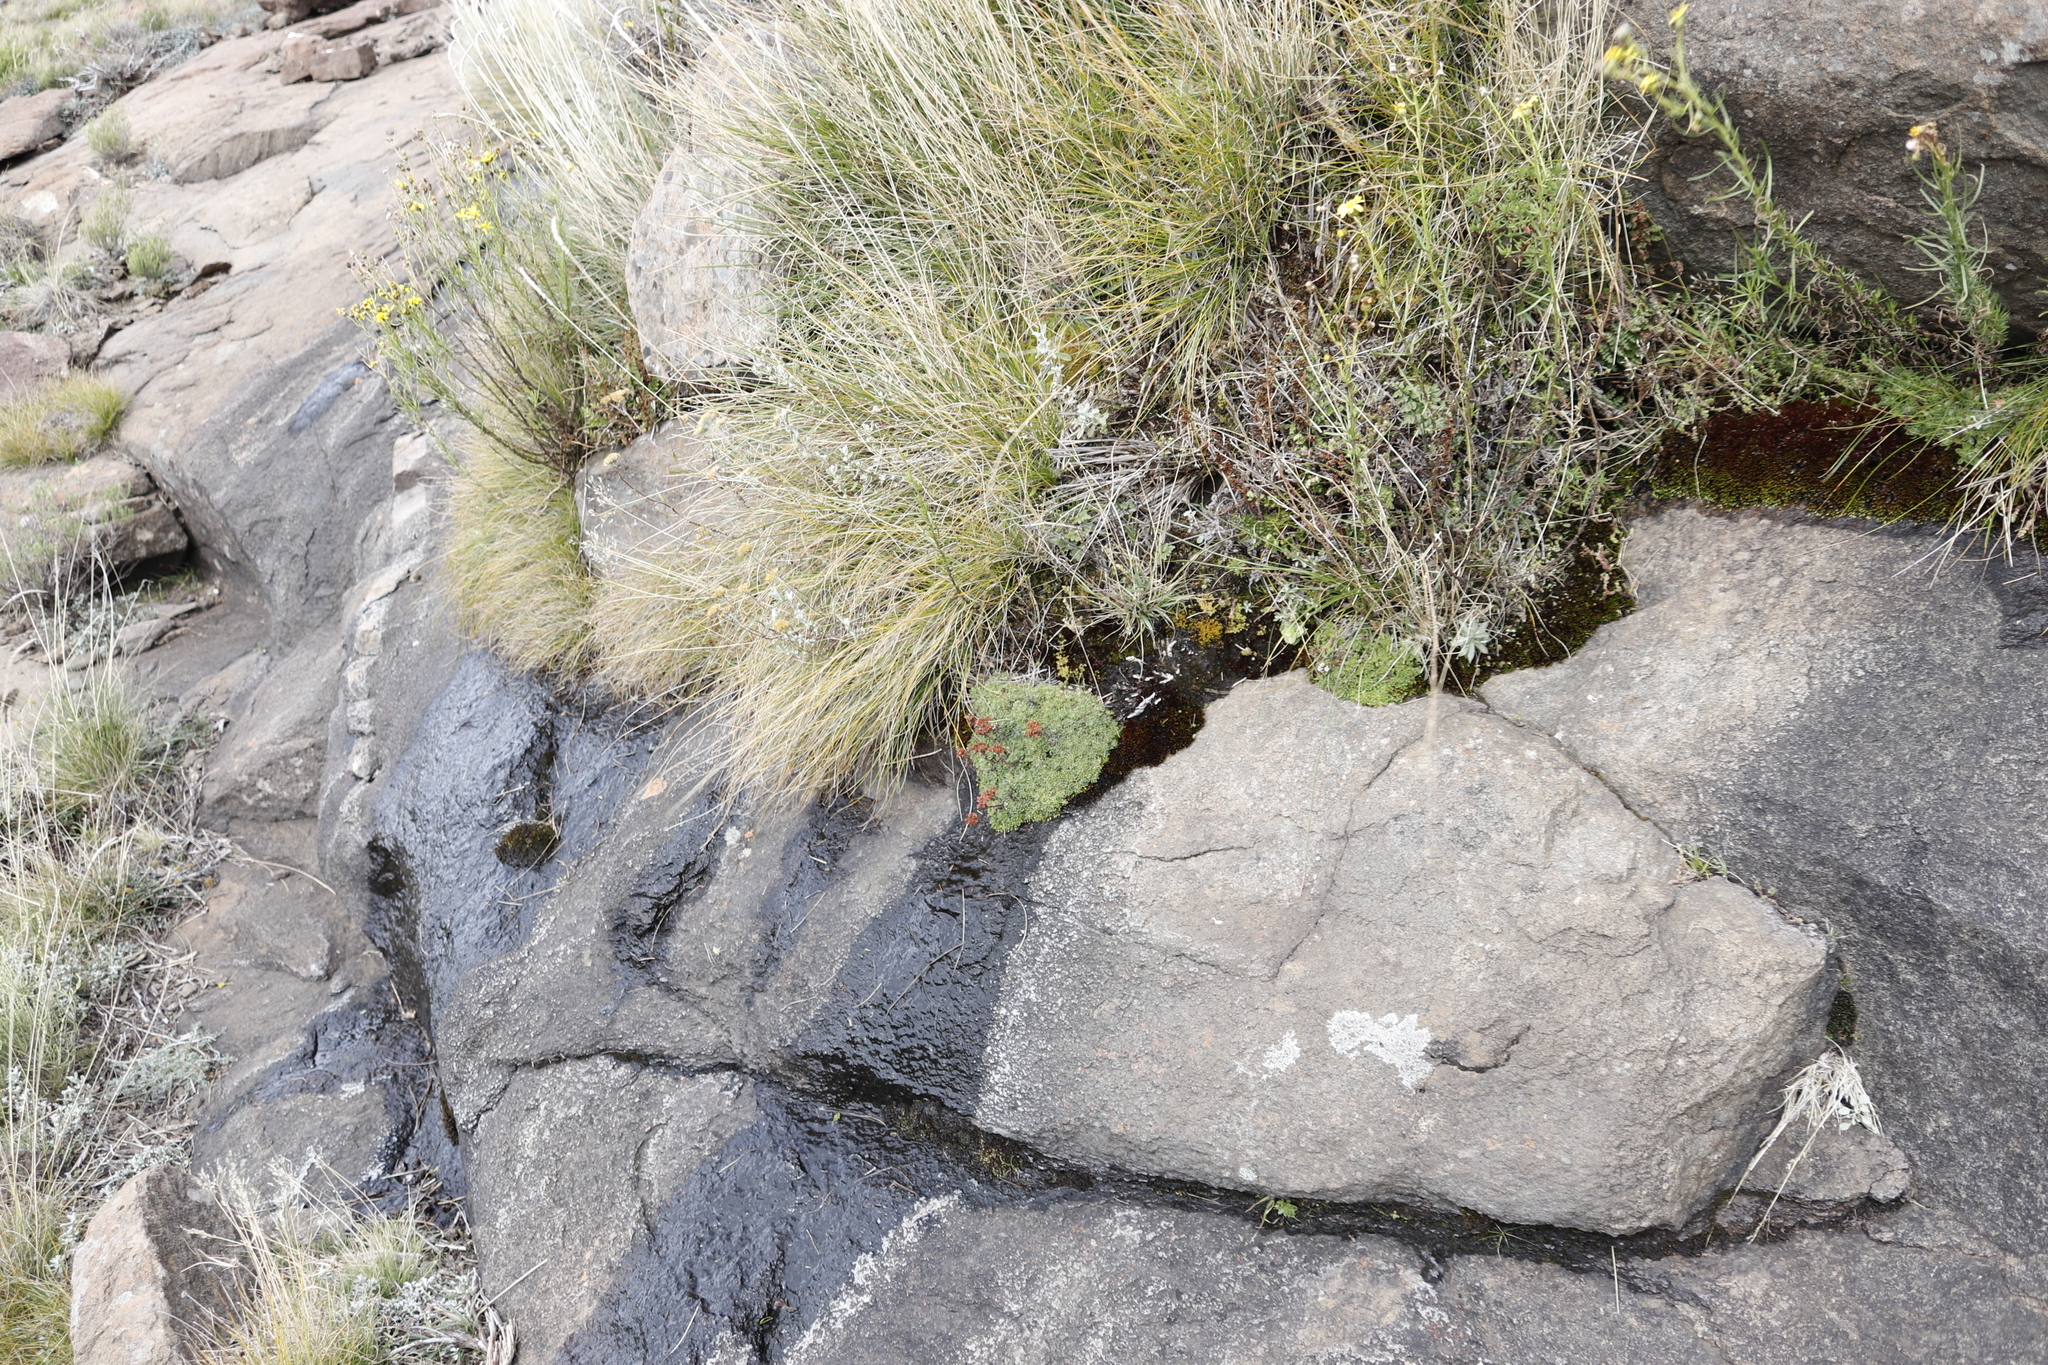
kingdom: Plantae
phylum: Tracheophyta
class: Magnoliopsida
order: Saxifragales
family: Crassulaceae
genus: Crassula
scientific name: Crassula setulosa
